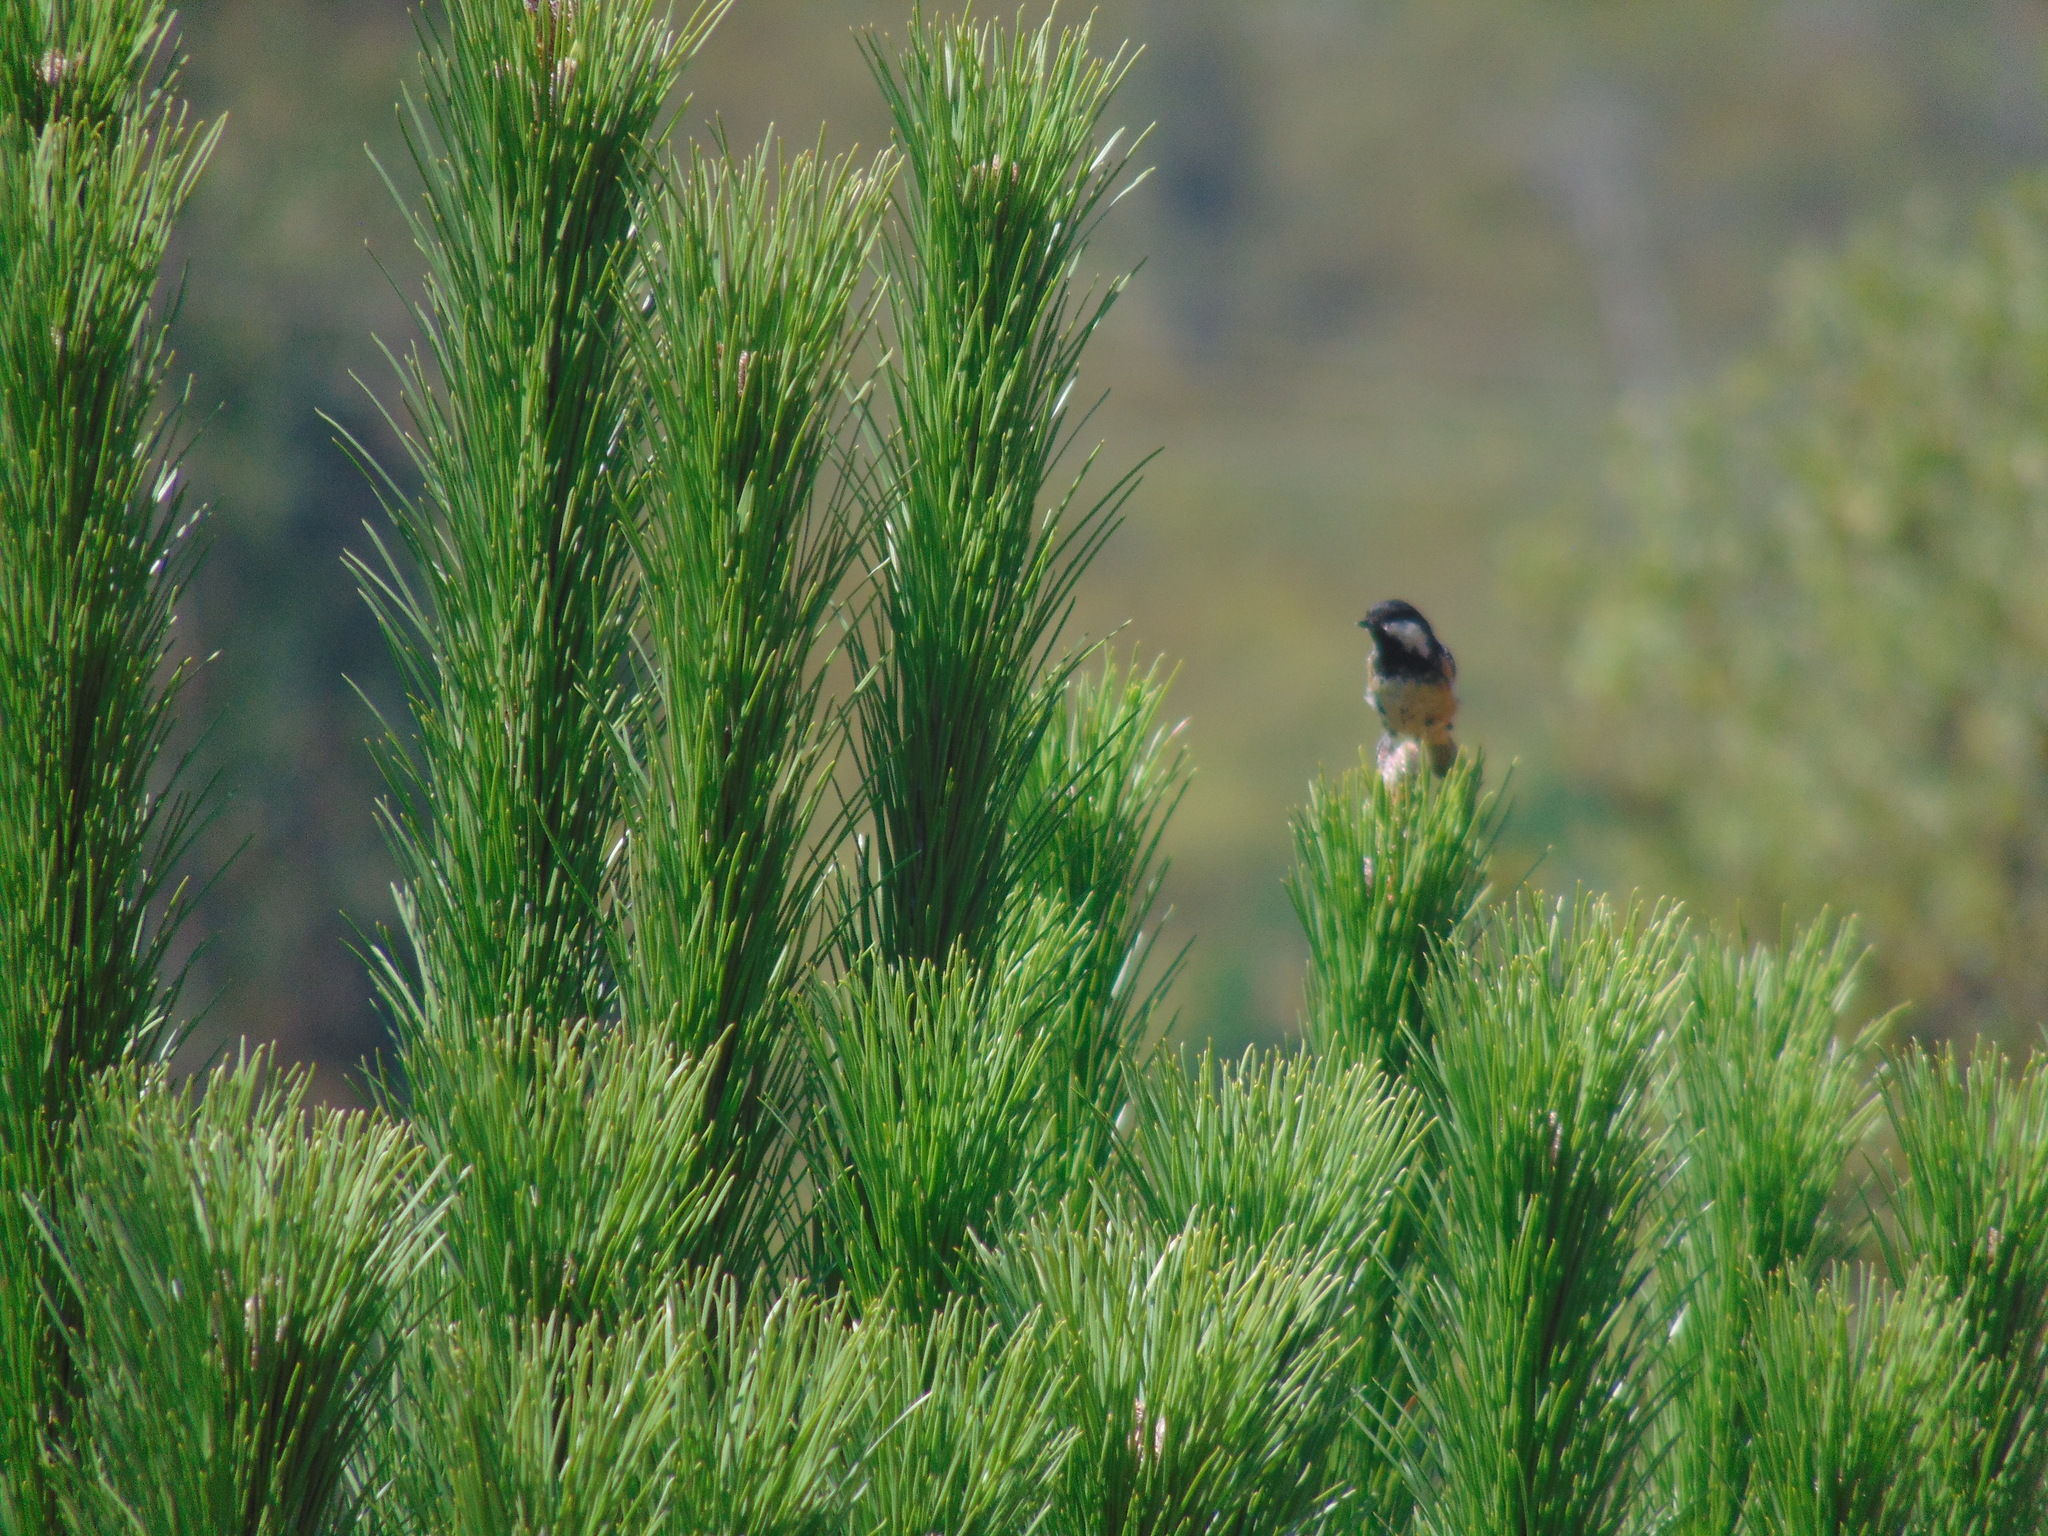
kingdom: Animalia
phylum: Chordata
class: Aves
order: Passeriformes
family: Paridae
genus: Periparus
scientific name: Periparus ater
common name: Coal tit
